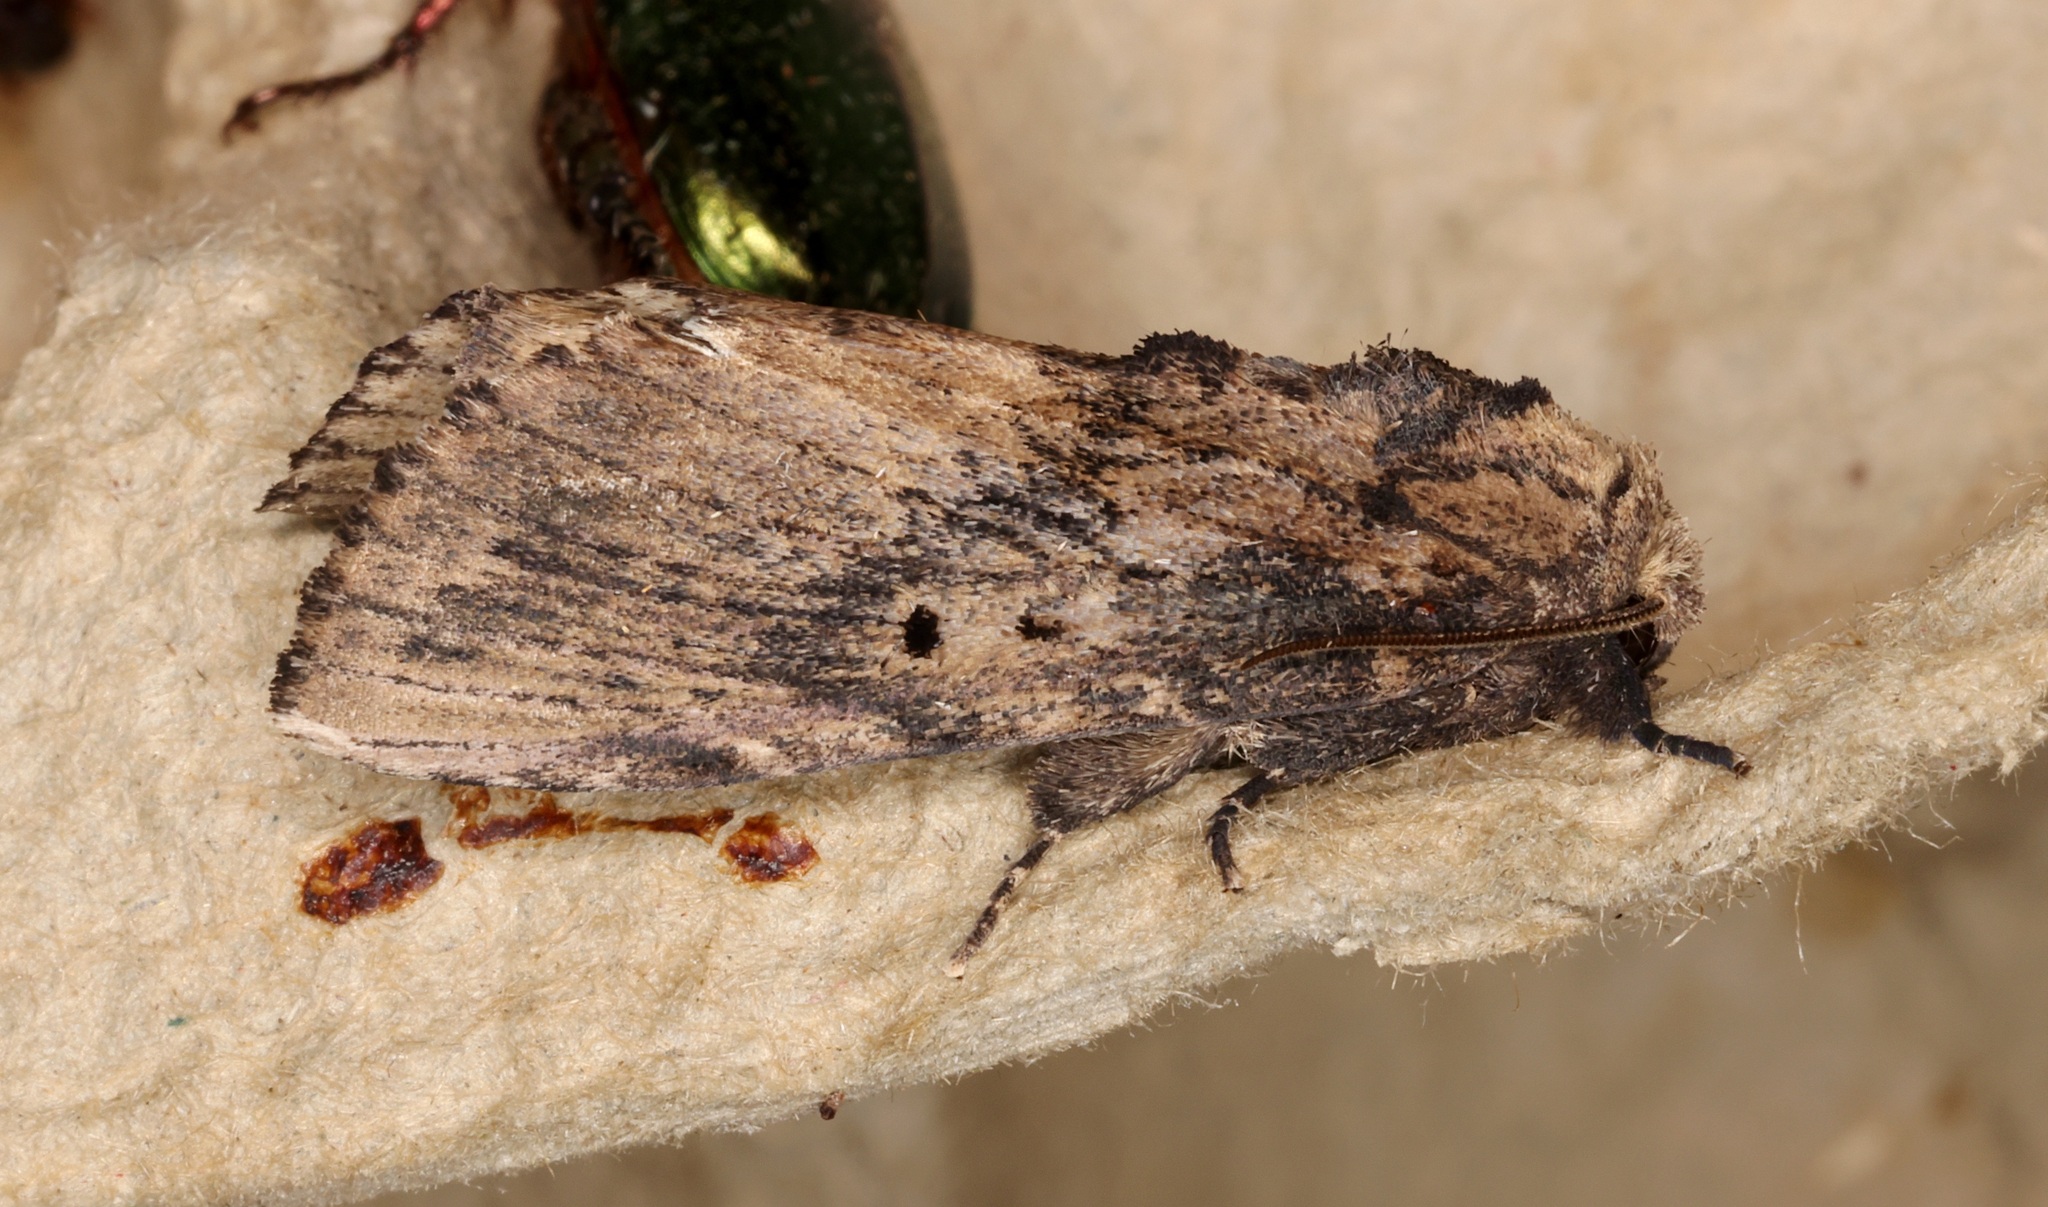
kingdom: Animalia
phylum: Arthropoda
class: Insecta
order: Lepidoptera
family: Notodontidae
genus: Norracoides
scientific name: Norracoides basinotata
